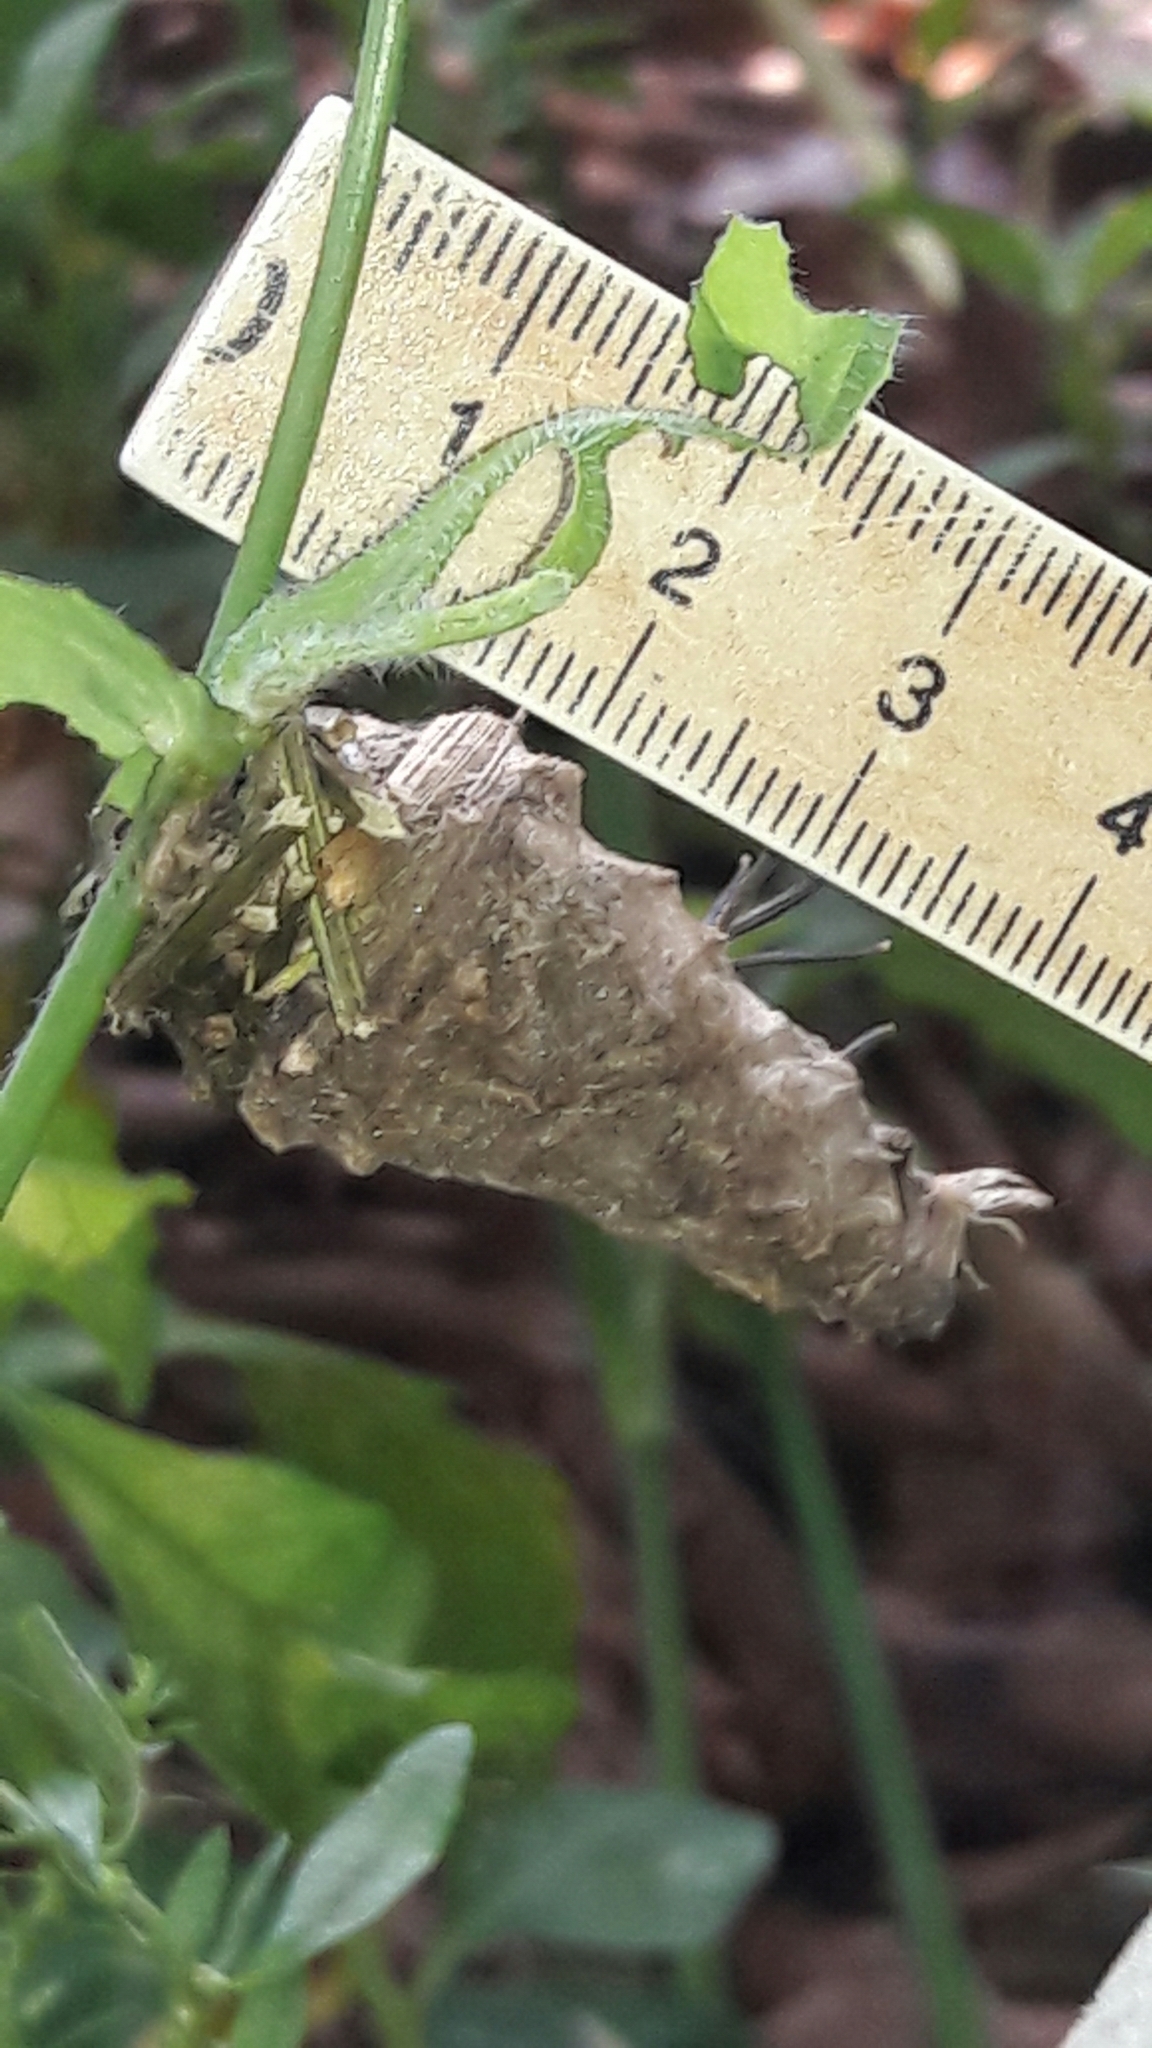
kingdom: Animalia
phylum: Arthropoda
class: Insecta
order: Lepidoptera
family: Psychidae
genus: Oiketicus
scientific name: Oiketicus kirbyi
